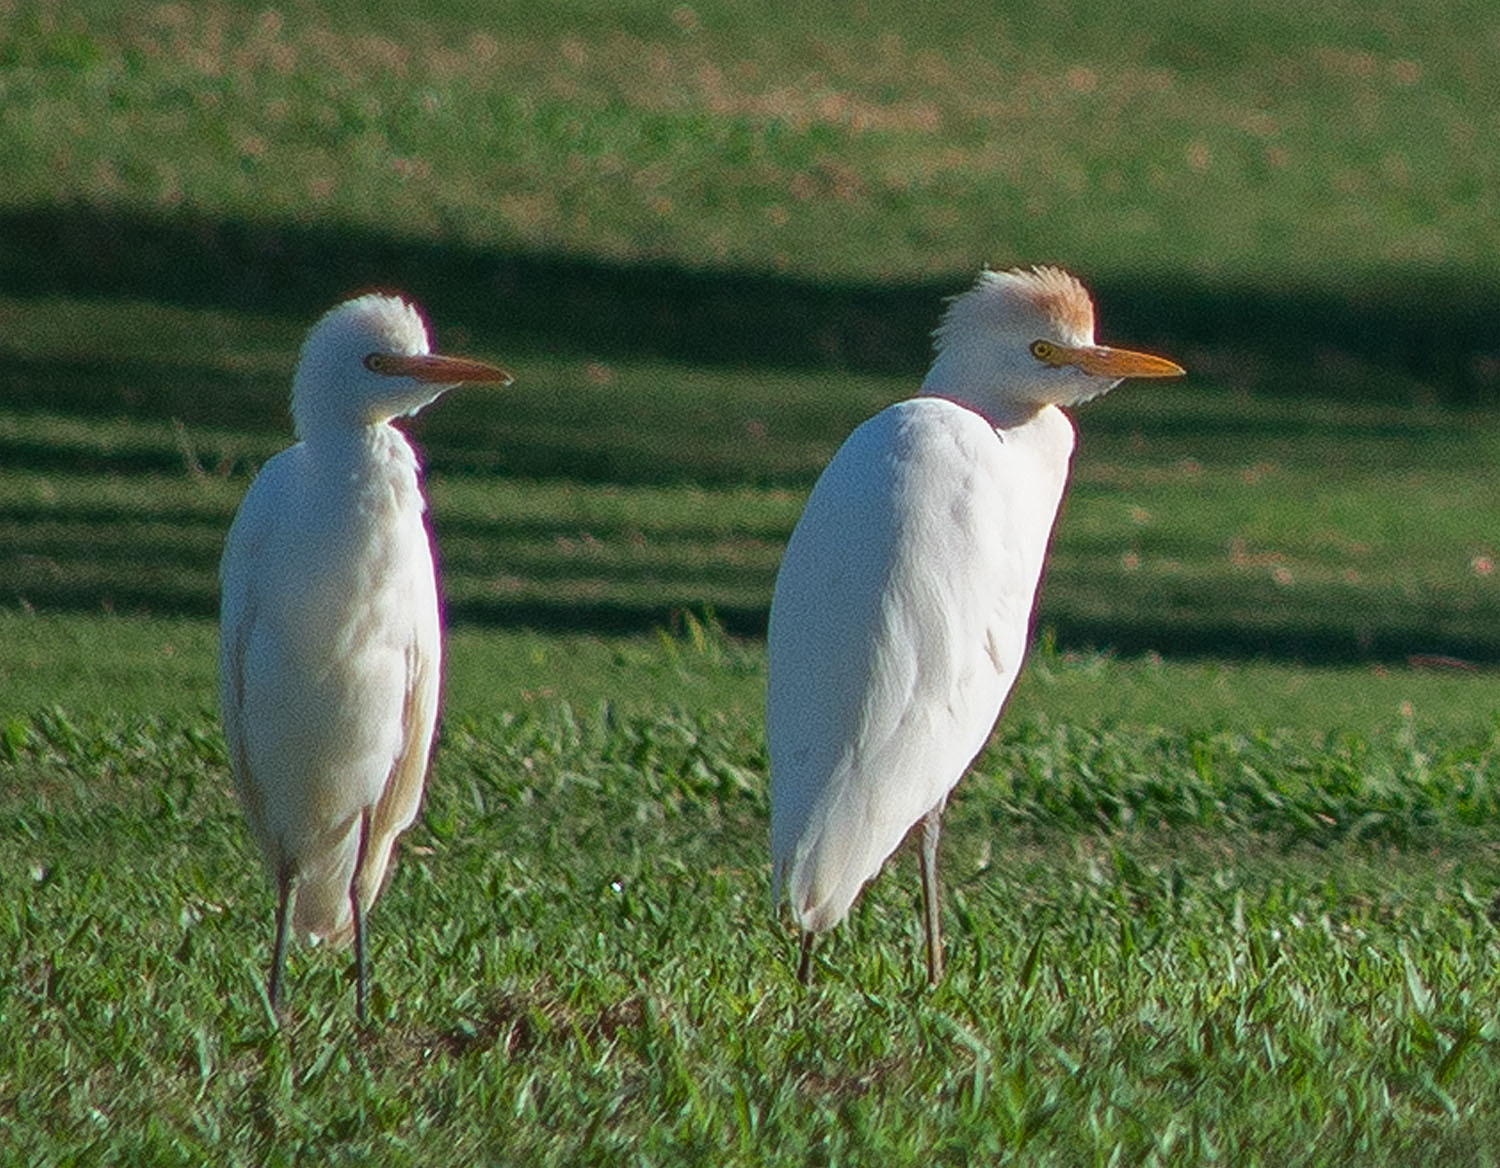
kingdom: Animalia
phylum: Chordata
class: Aves
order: Pelecaniformes
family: Ardeidae
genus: Bubulcus
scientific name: Bubulcus ibis
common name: Cattle egret
